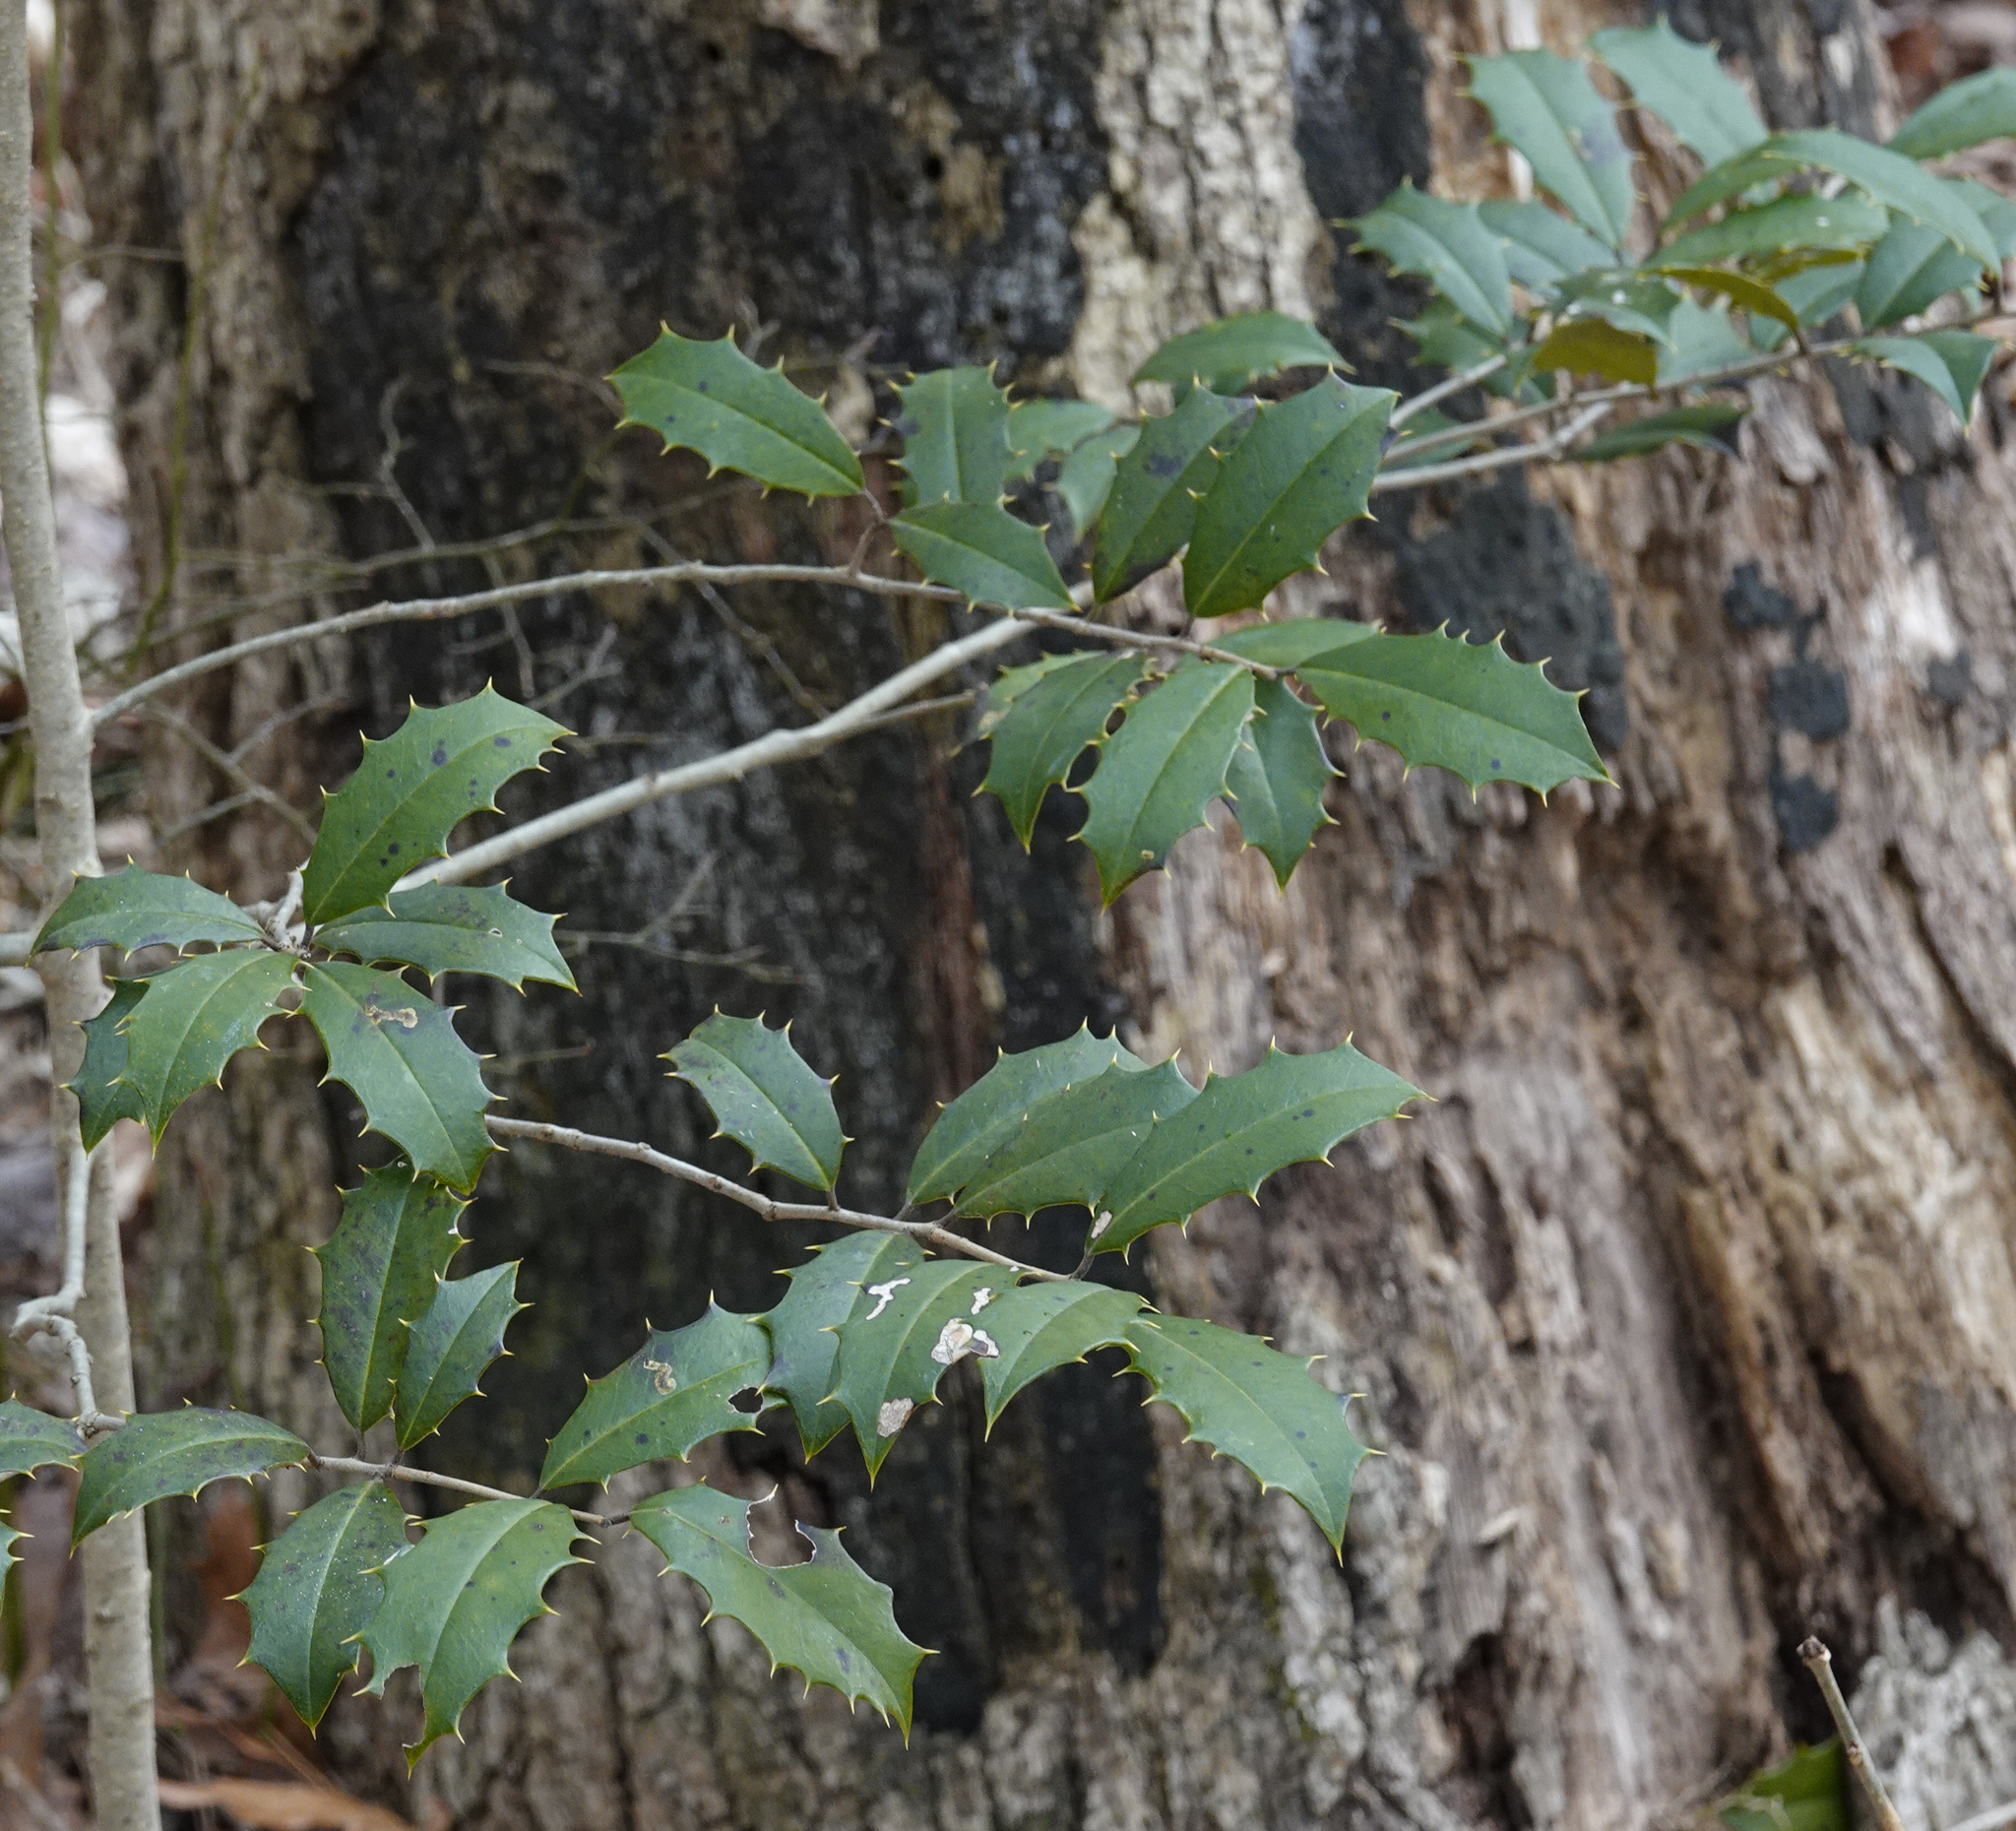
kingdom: Plantae
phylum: Tracheophyta
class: Magnoliopsida
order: Aquifoliales
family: Aquifoliaceae
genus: Ilex
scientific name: Ilex opaca
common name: American holly
